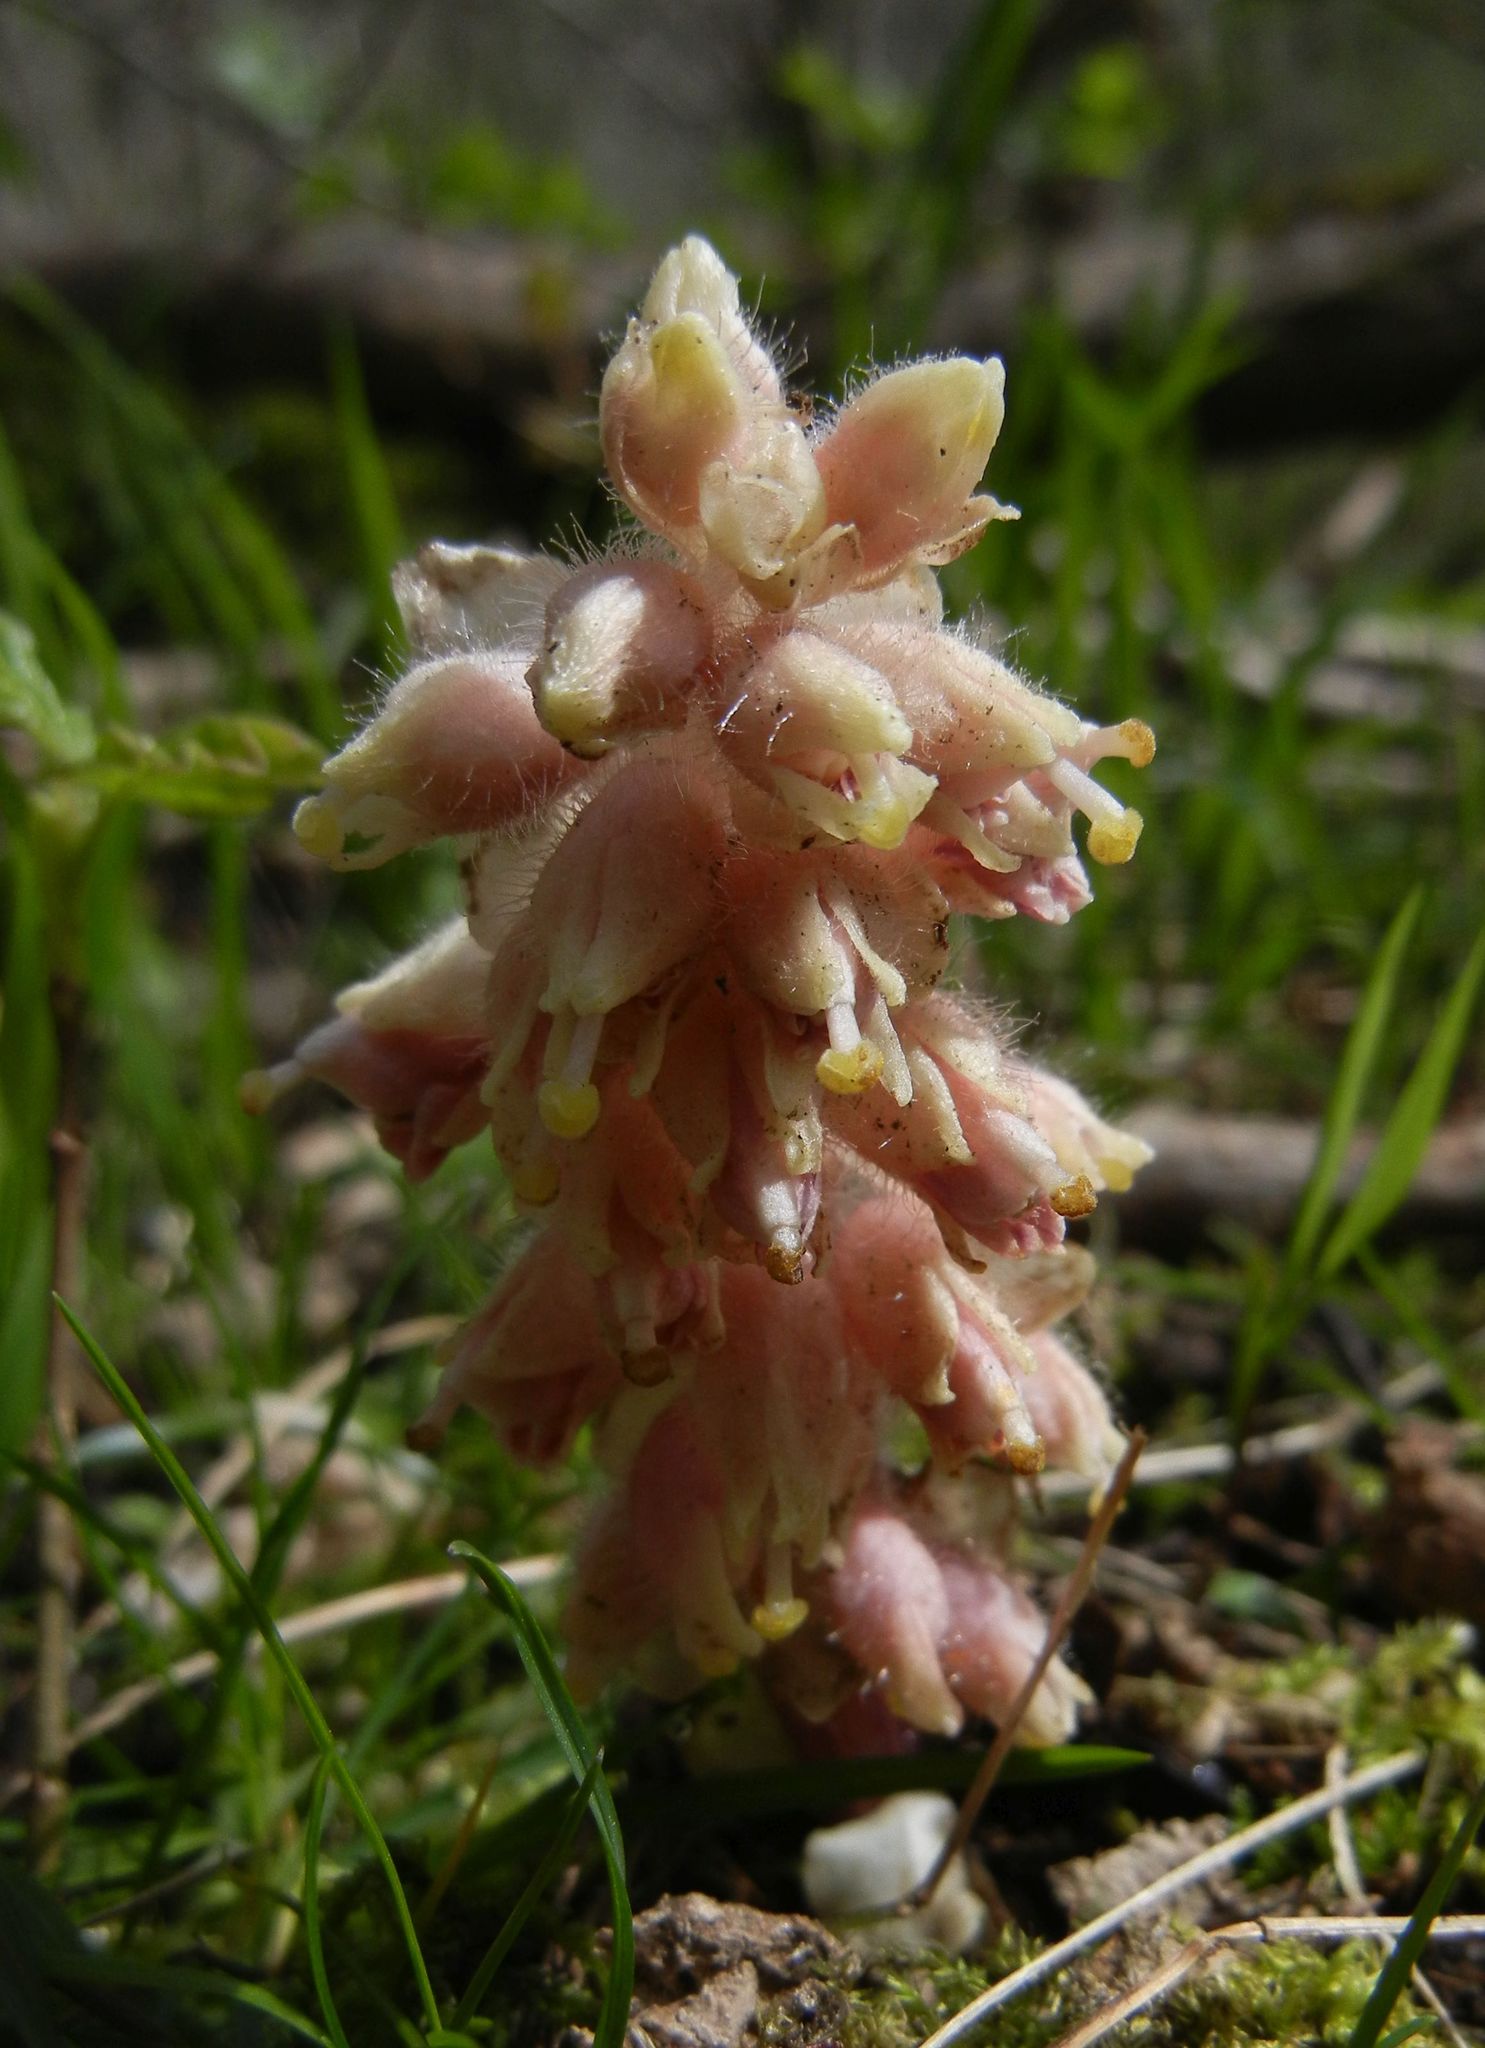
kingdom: Plantae
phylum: Tracheophyta
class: Magnoliopsida
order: Lamiales
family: Orobanchaceae
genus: Lathraea
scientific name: Lathraea squamaria
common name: Toothwort
